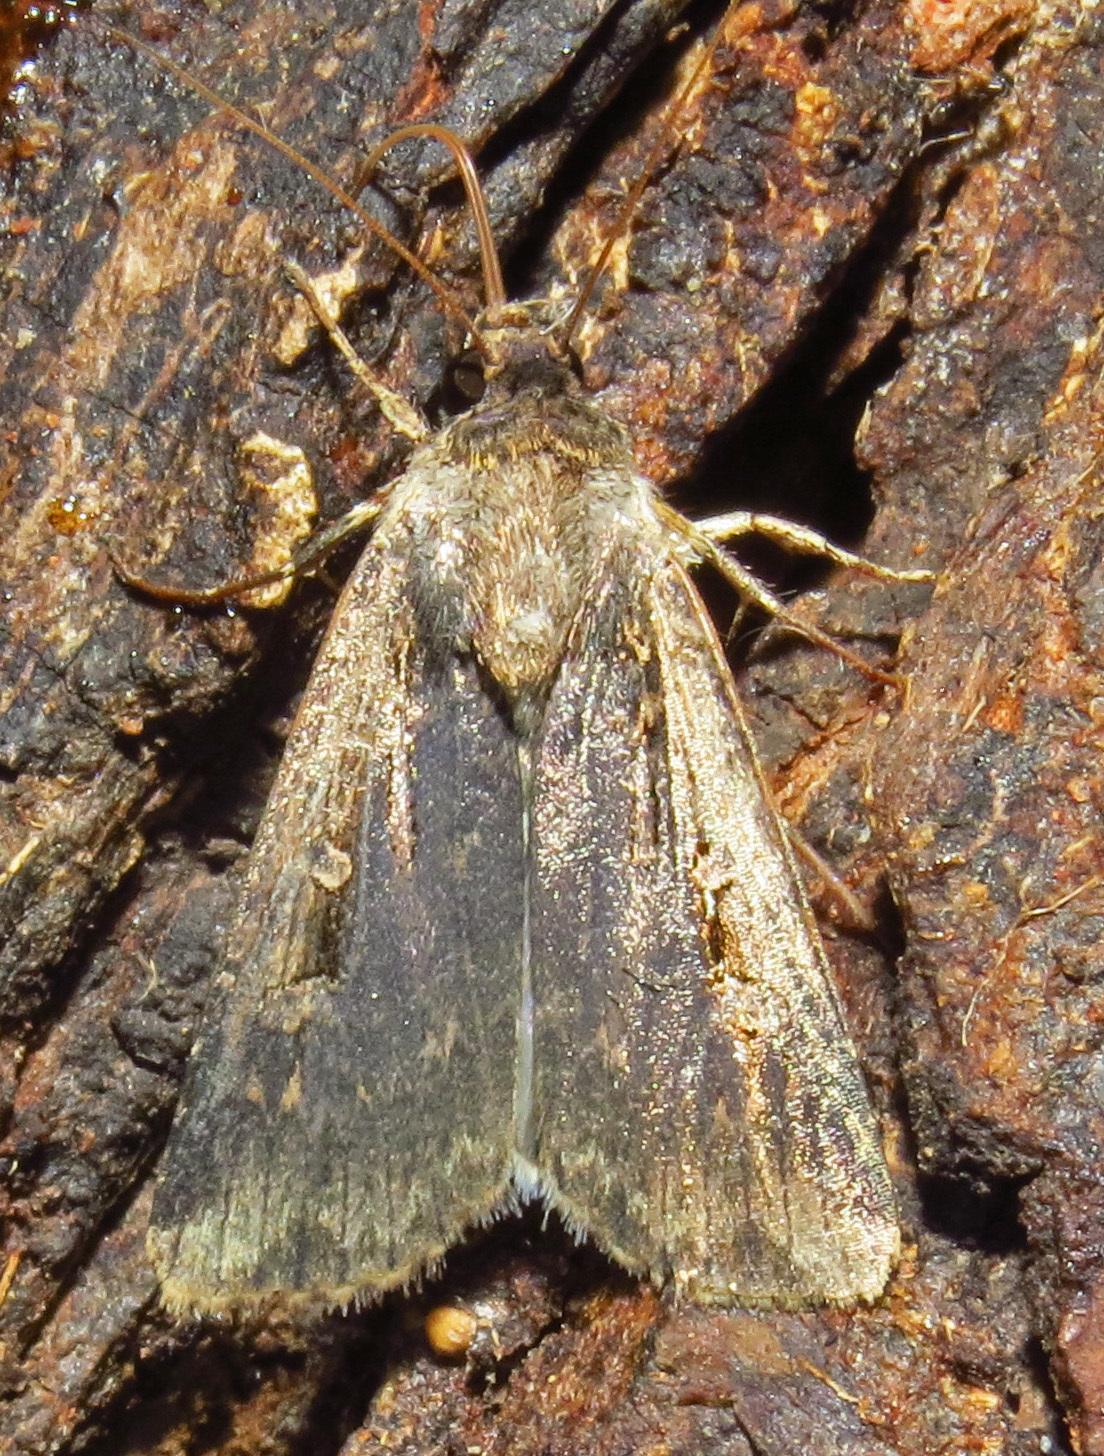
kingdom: Animalia
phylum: Arthropoda
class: Insecta
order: Lepidoptera
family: Noctuidae
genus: Feltia
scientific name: Feltia subterranea
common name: Granulate cutworm
